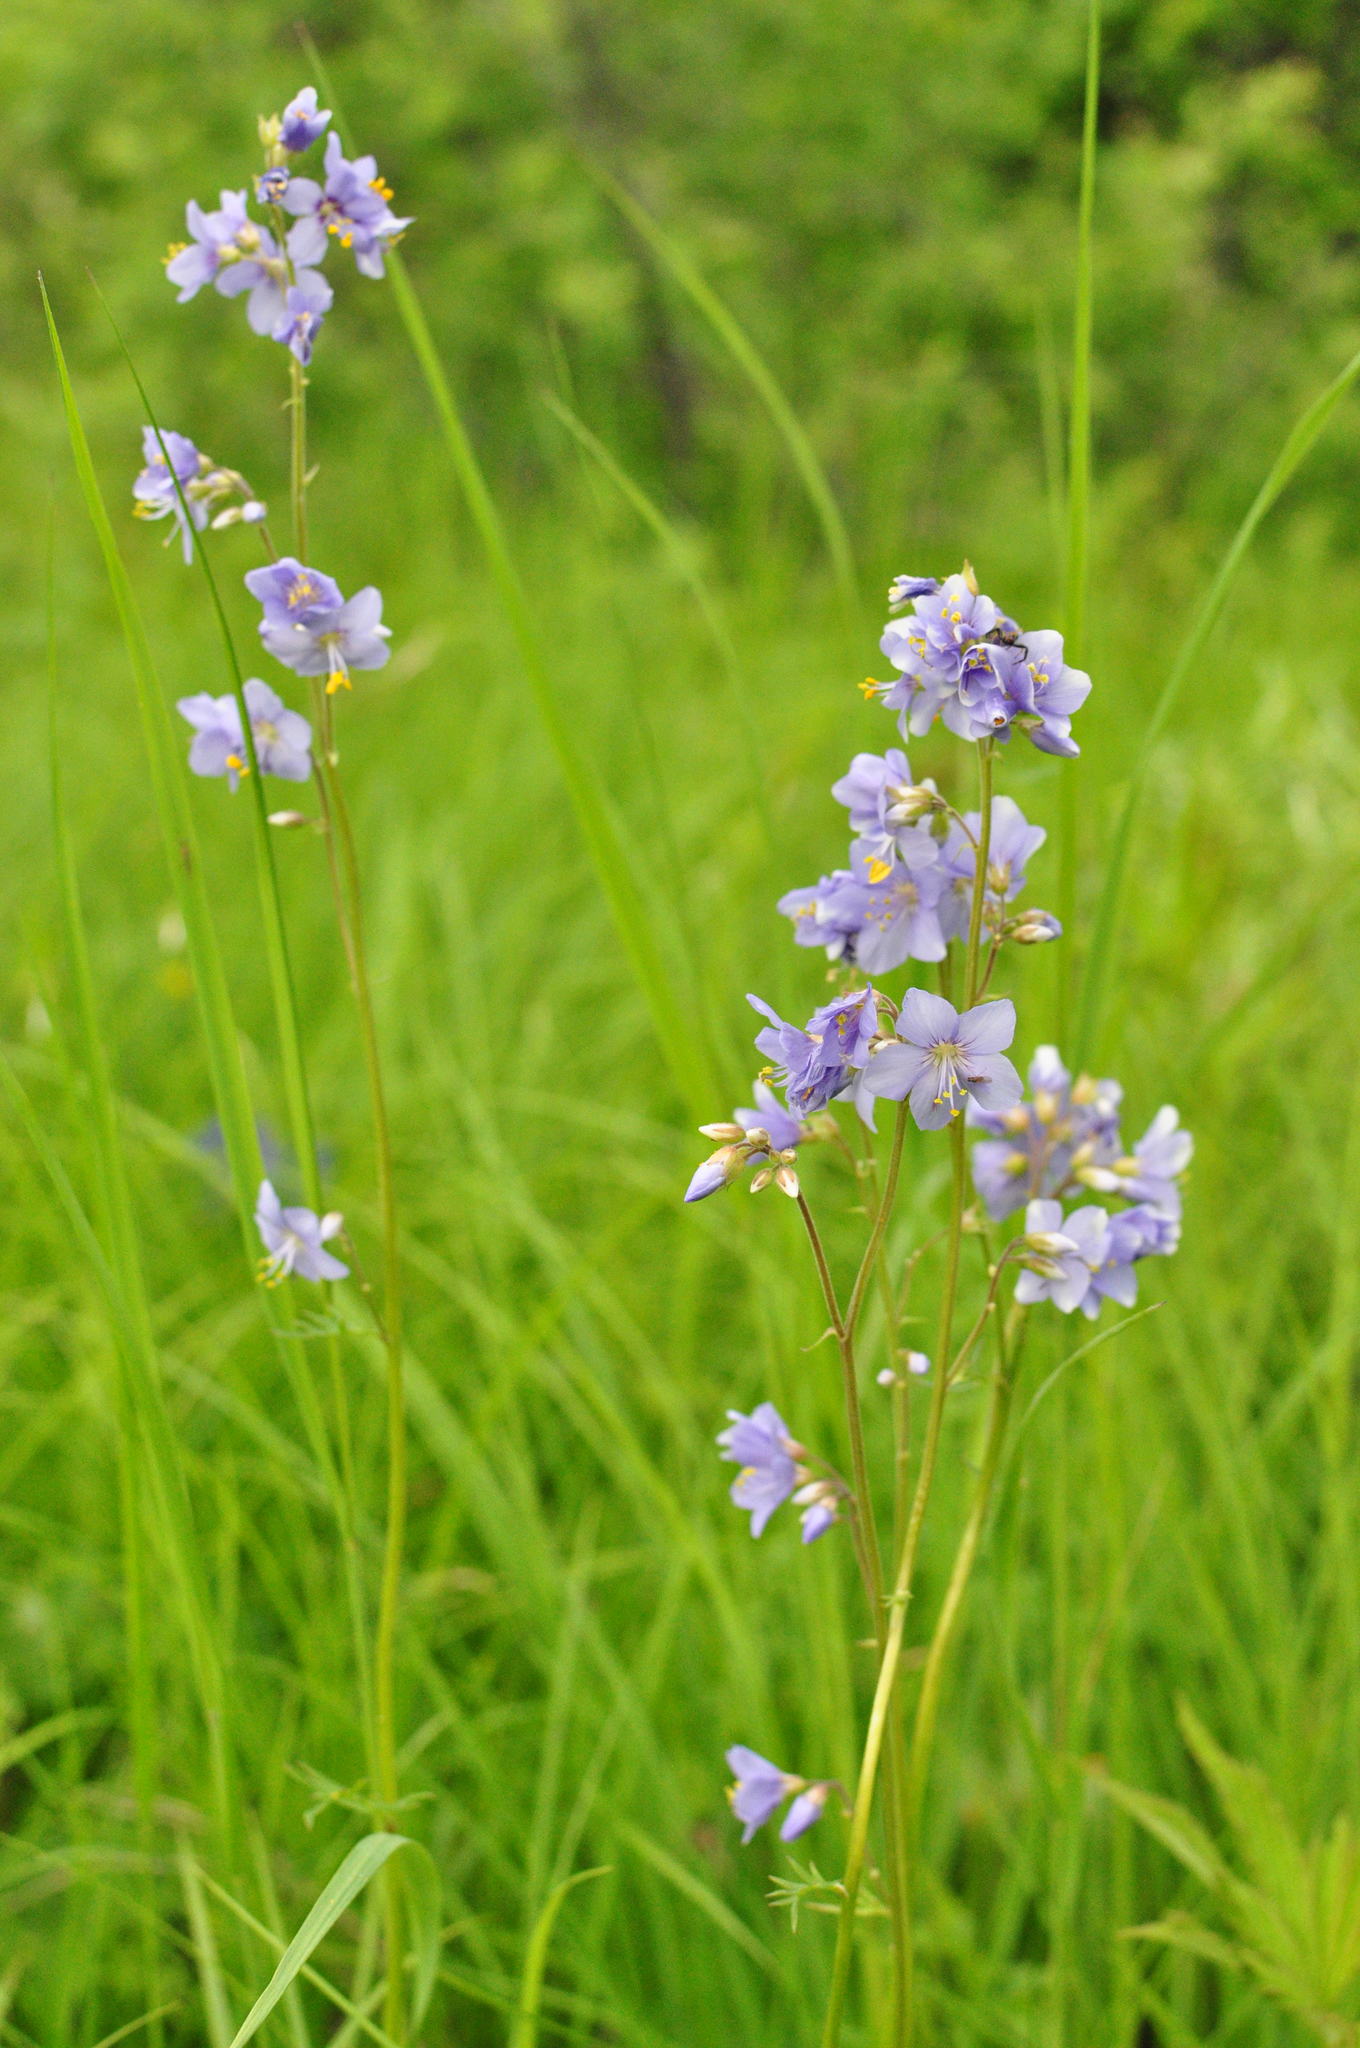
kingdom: Plantae
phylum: Tracheophyta
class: Magnoliopsida
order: Ericales
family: Polemoniaceae
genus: Polemonium
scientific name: Polemonium caeruleum
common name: Jacob's-ladder
